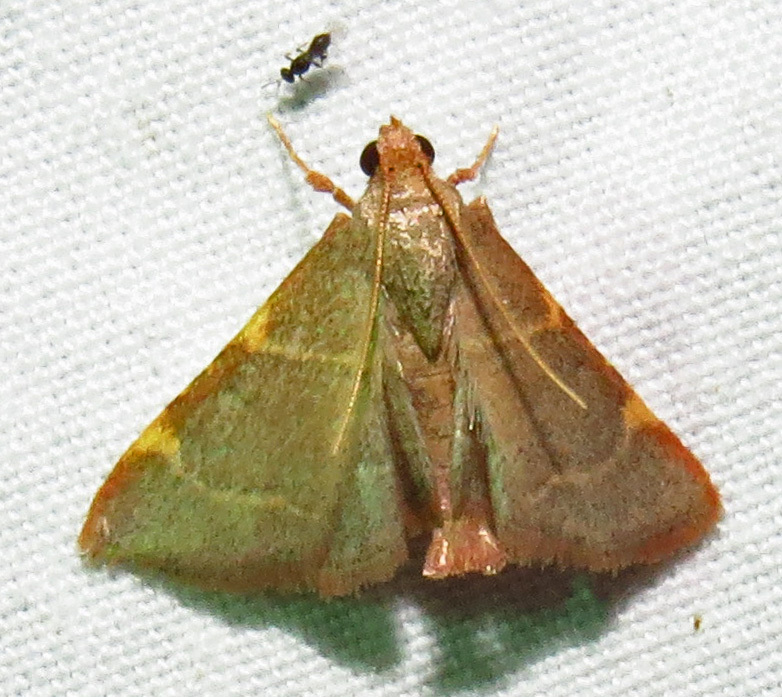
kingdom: Animalia
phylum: Arthropoda
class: Insecta
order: Lepidoptera
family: Pyralidae
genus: Hypsopygia
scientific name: Hypsopygia binodulalis
